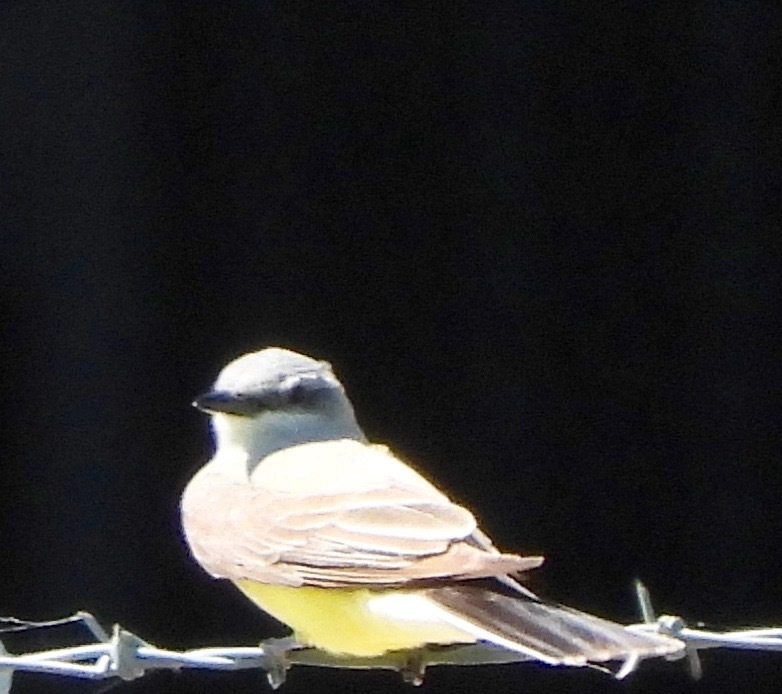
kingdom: Animalia
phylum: Chordata
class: Aves
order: Passeriformes
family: Tyrannidae
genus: Tyrannus
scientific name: Tyrannus verticalis
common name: Western kingbird
